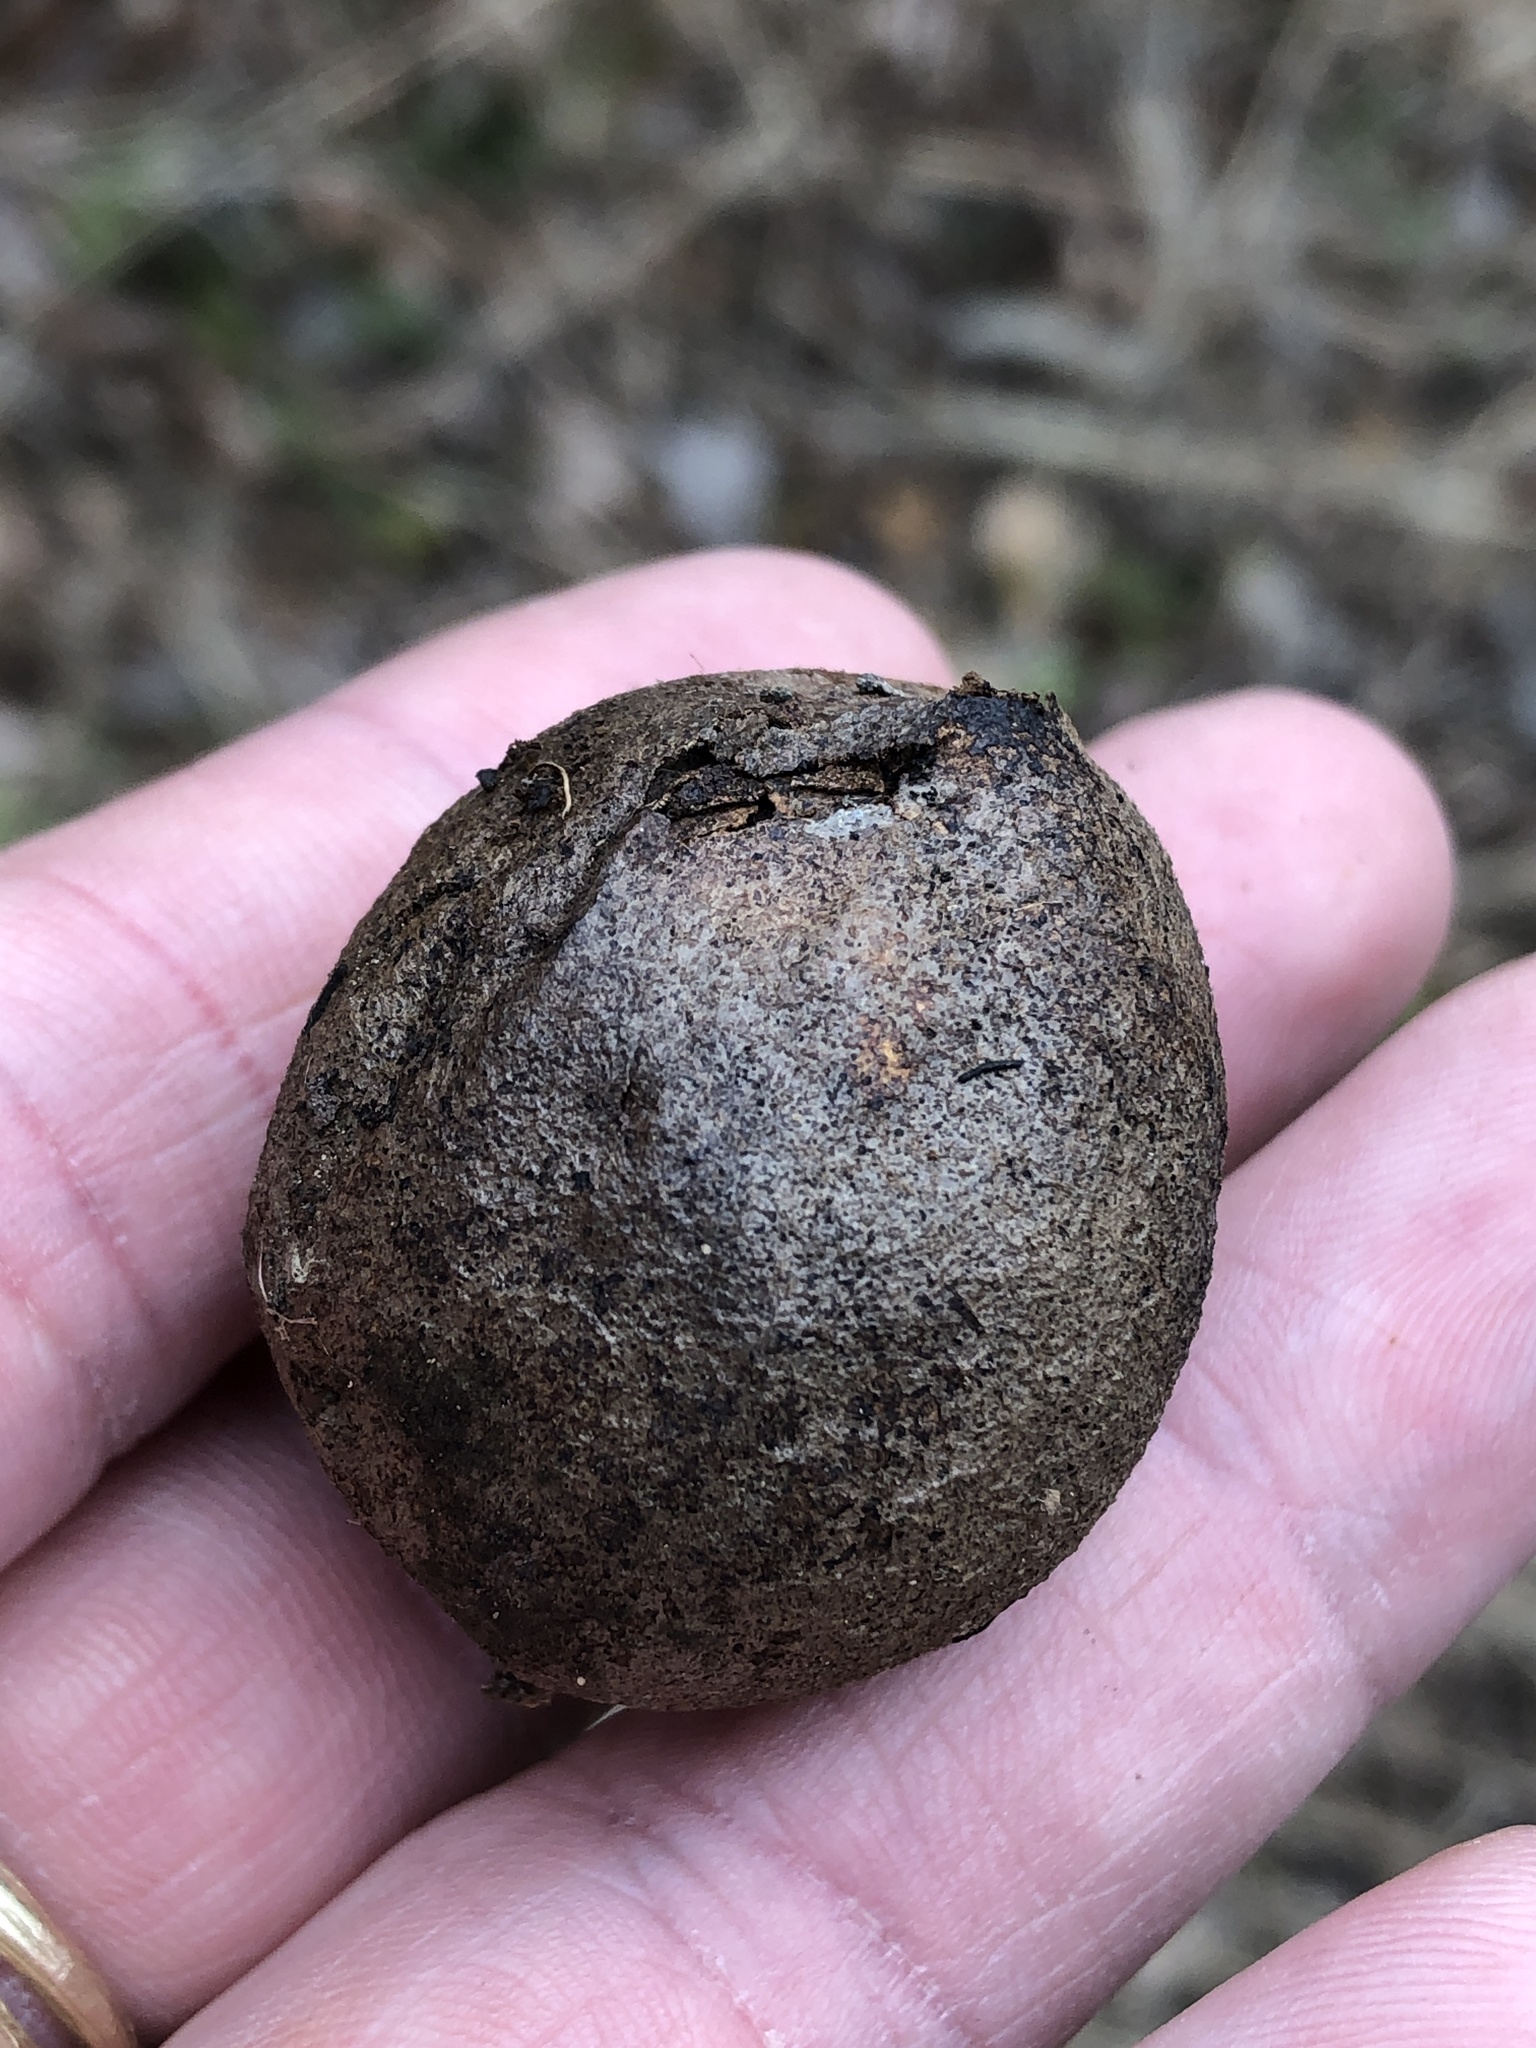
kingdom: Plantae
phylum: Tracheophyta
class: Magnoliopsida
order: Fagales
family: Juglandaceae
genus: Juglans
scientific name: Juglans nigra
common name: Black walnut
